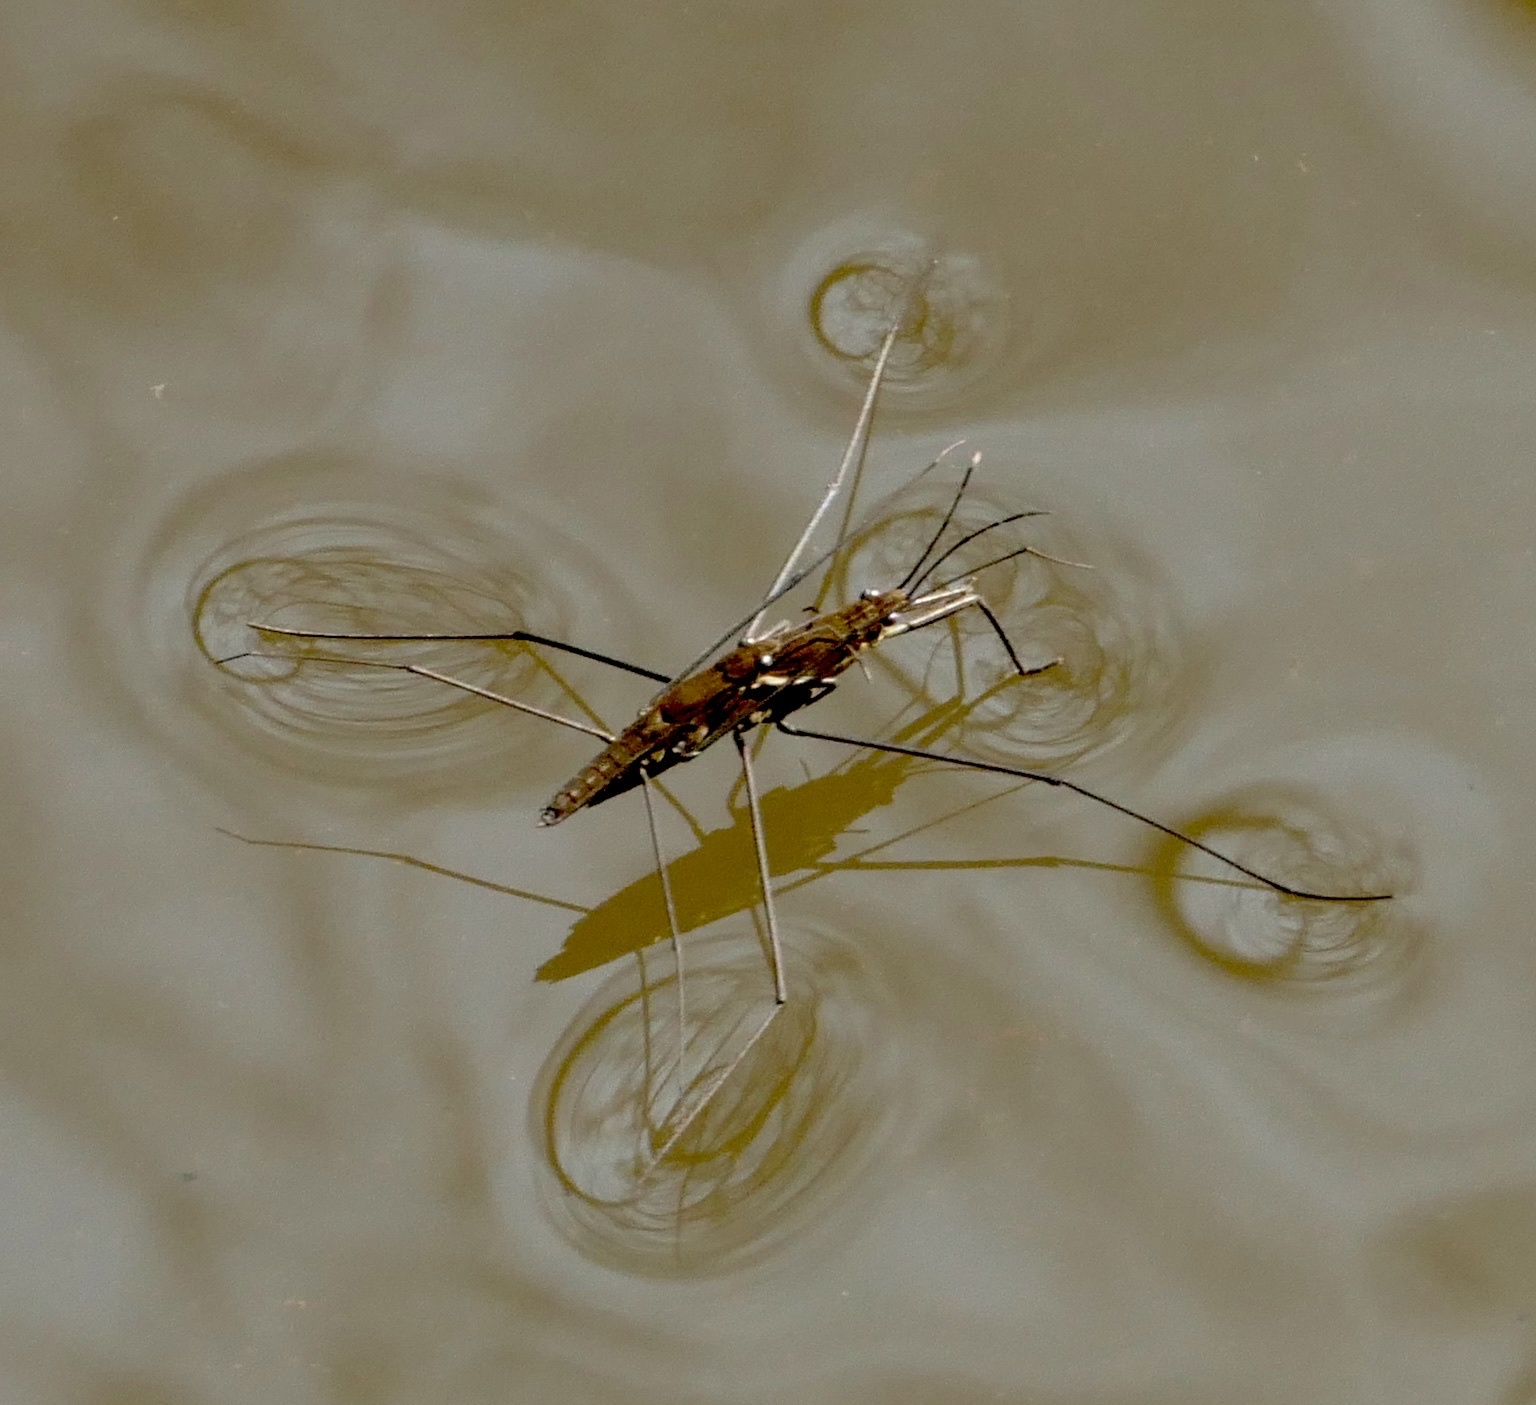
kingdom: Animalia
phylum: Arthropoda
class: Insecta
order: Hemiptera
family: Gerridae
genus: Aquarius
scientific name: Aquarius najas
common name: River skater
